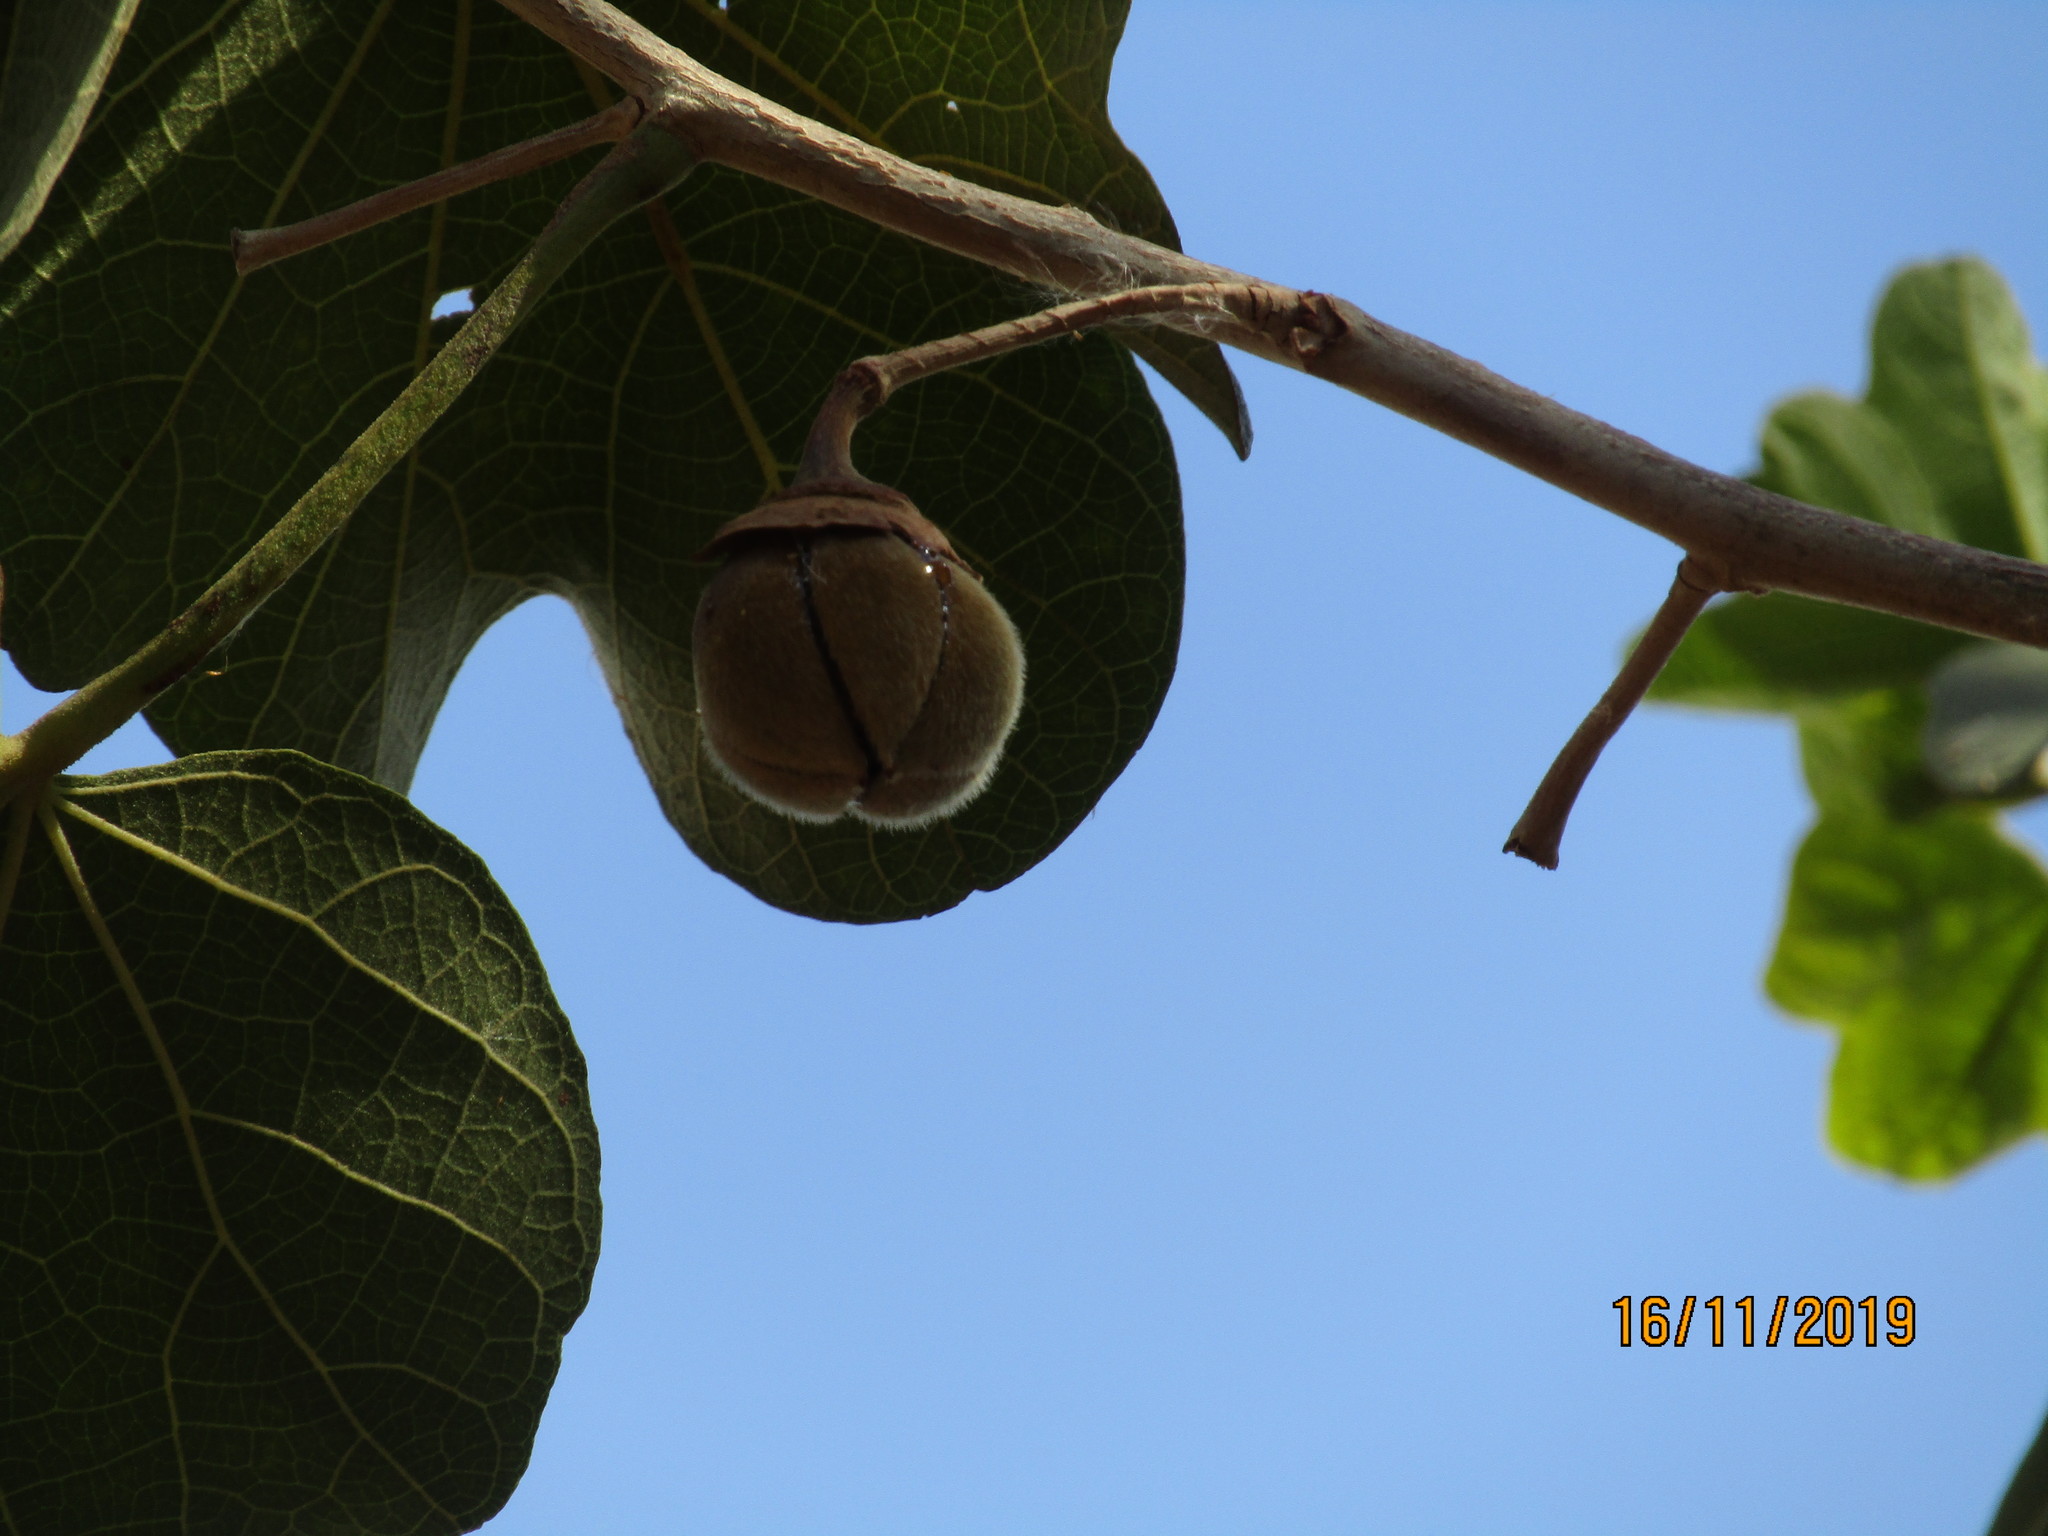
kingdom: Plantae
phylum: Tracheophyta
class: Magnoliopsida
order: Malvales
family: Malvaceae
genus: Thespesia
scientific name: Thespesia garckeana
